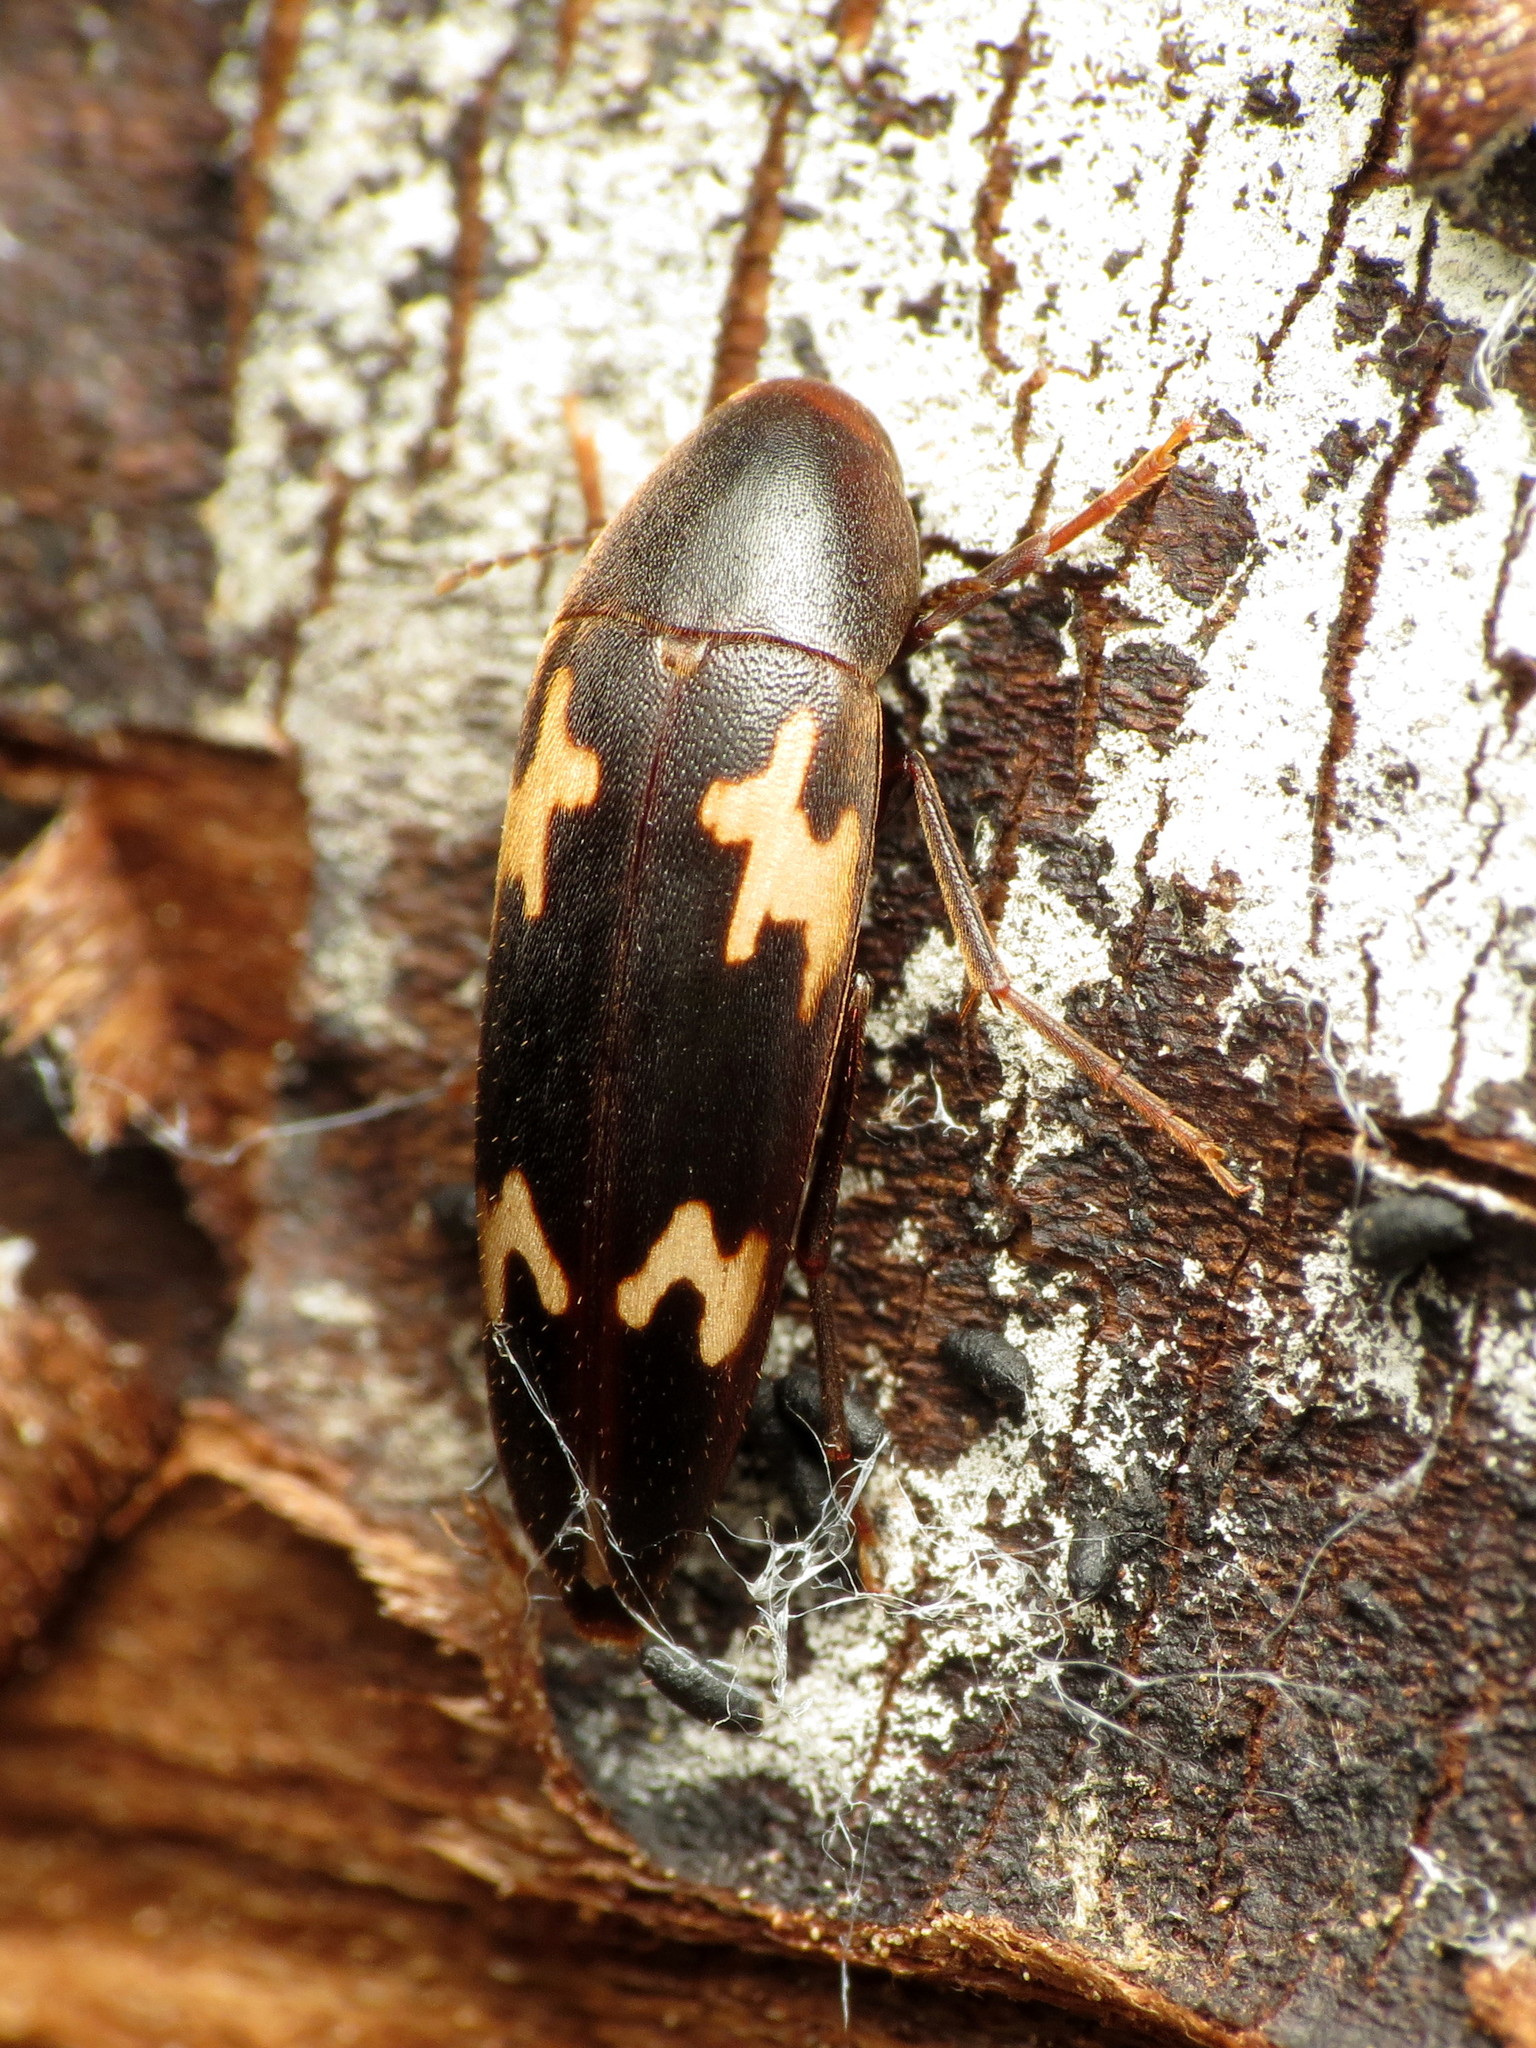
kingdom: Animalia
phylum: Arthropoda
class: Insecta
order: Coleoptera
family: Melandryidae
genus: Dircaea
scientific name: Dircaea liturata
